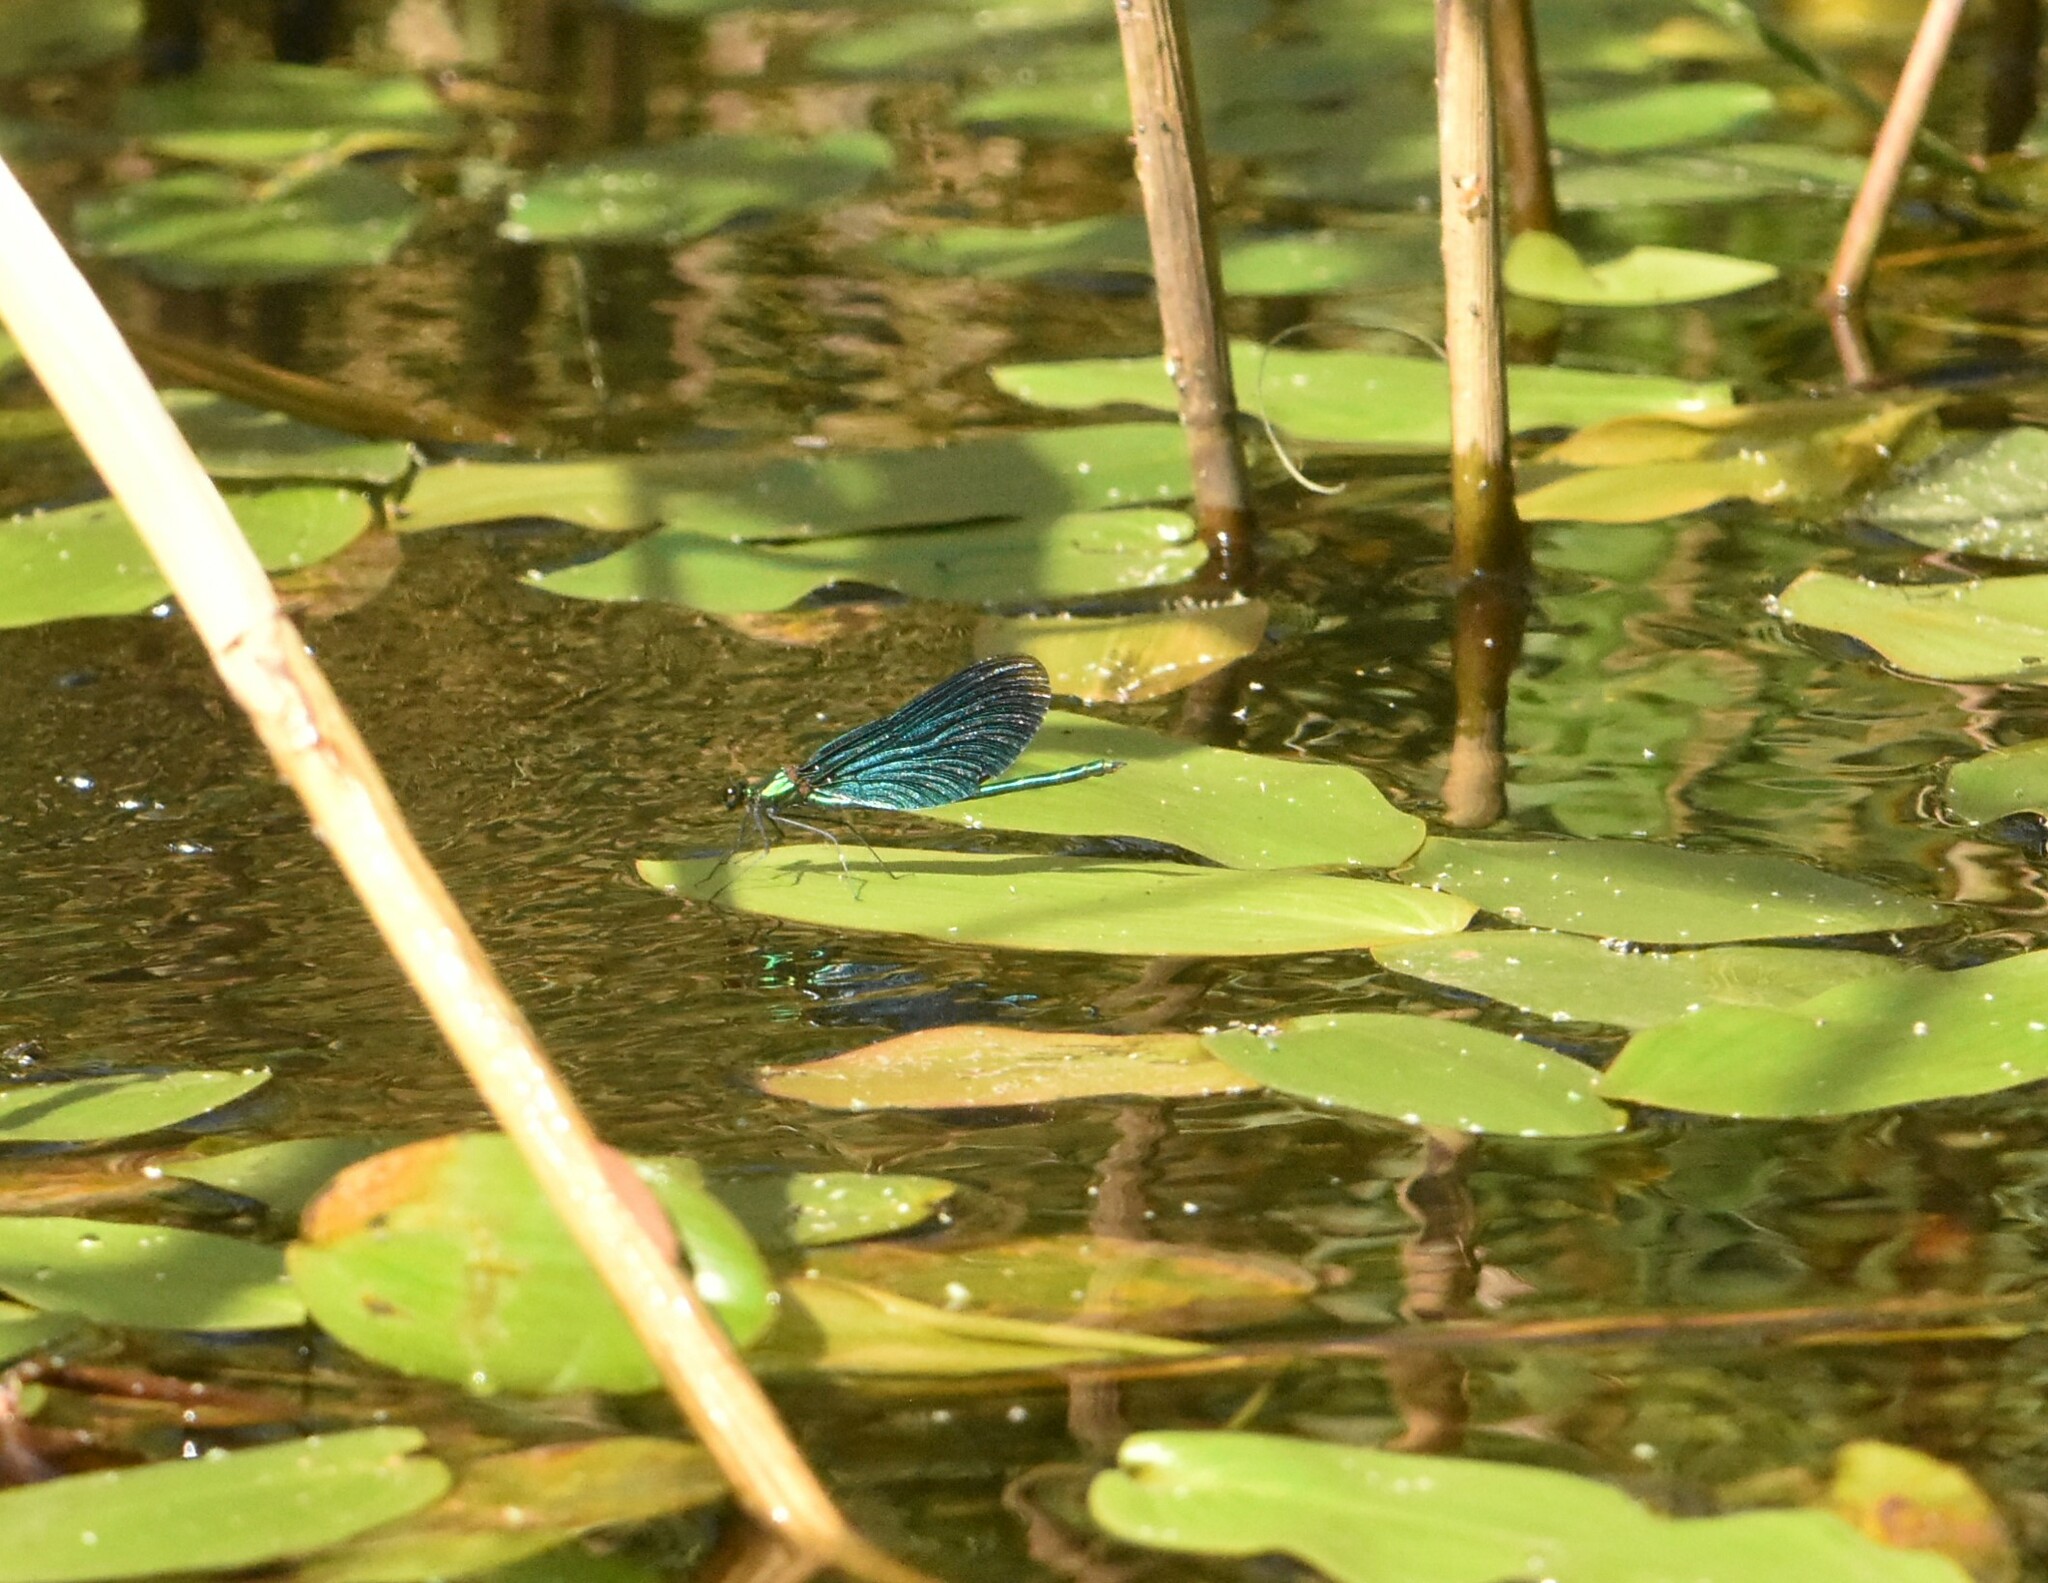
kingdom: Animalia
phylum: Arthropoda
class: Insecta
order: Odonata
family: Calopterygidae
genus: Calopteryx
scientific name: Calopteryx virgo
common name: Beautiful demoiselle
